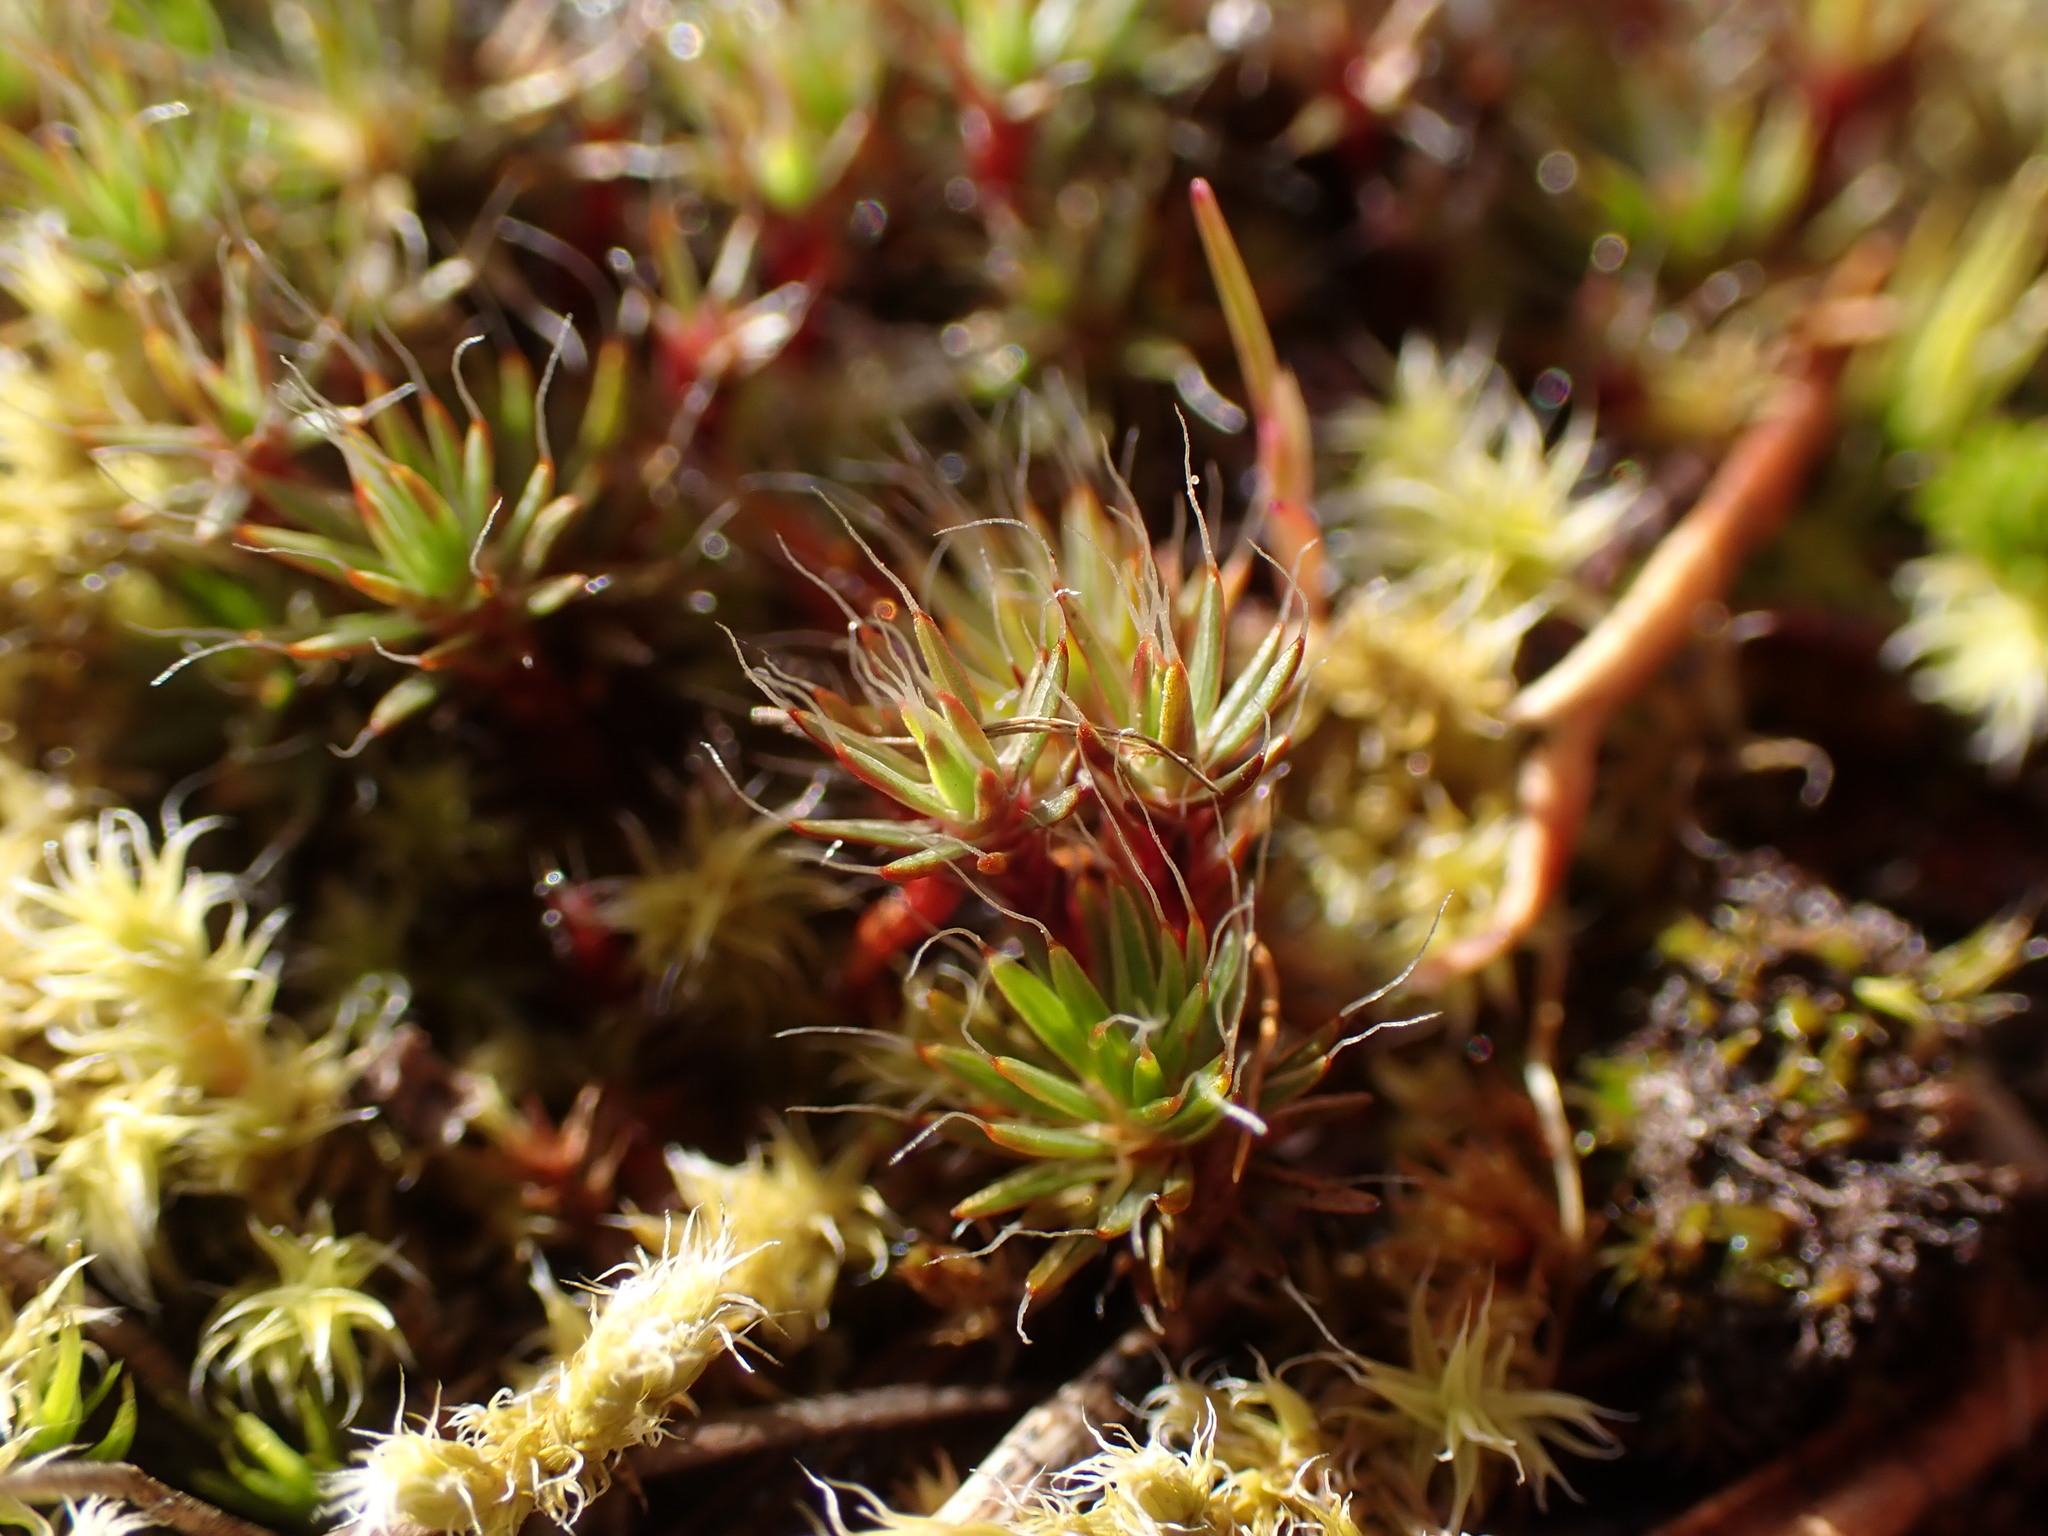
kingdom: Plantae
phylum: Bryophyta
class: Polytrichopsida
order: Polytrichales
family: Polytrichaceae
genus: Polytrichum
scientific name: Polytrichum piliferum
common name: Bristly haircap
